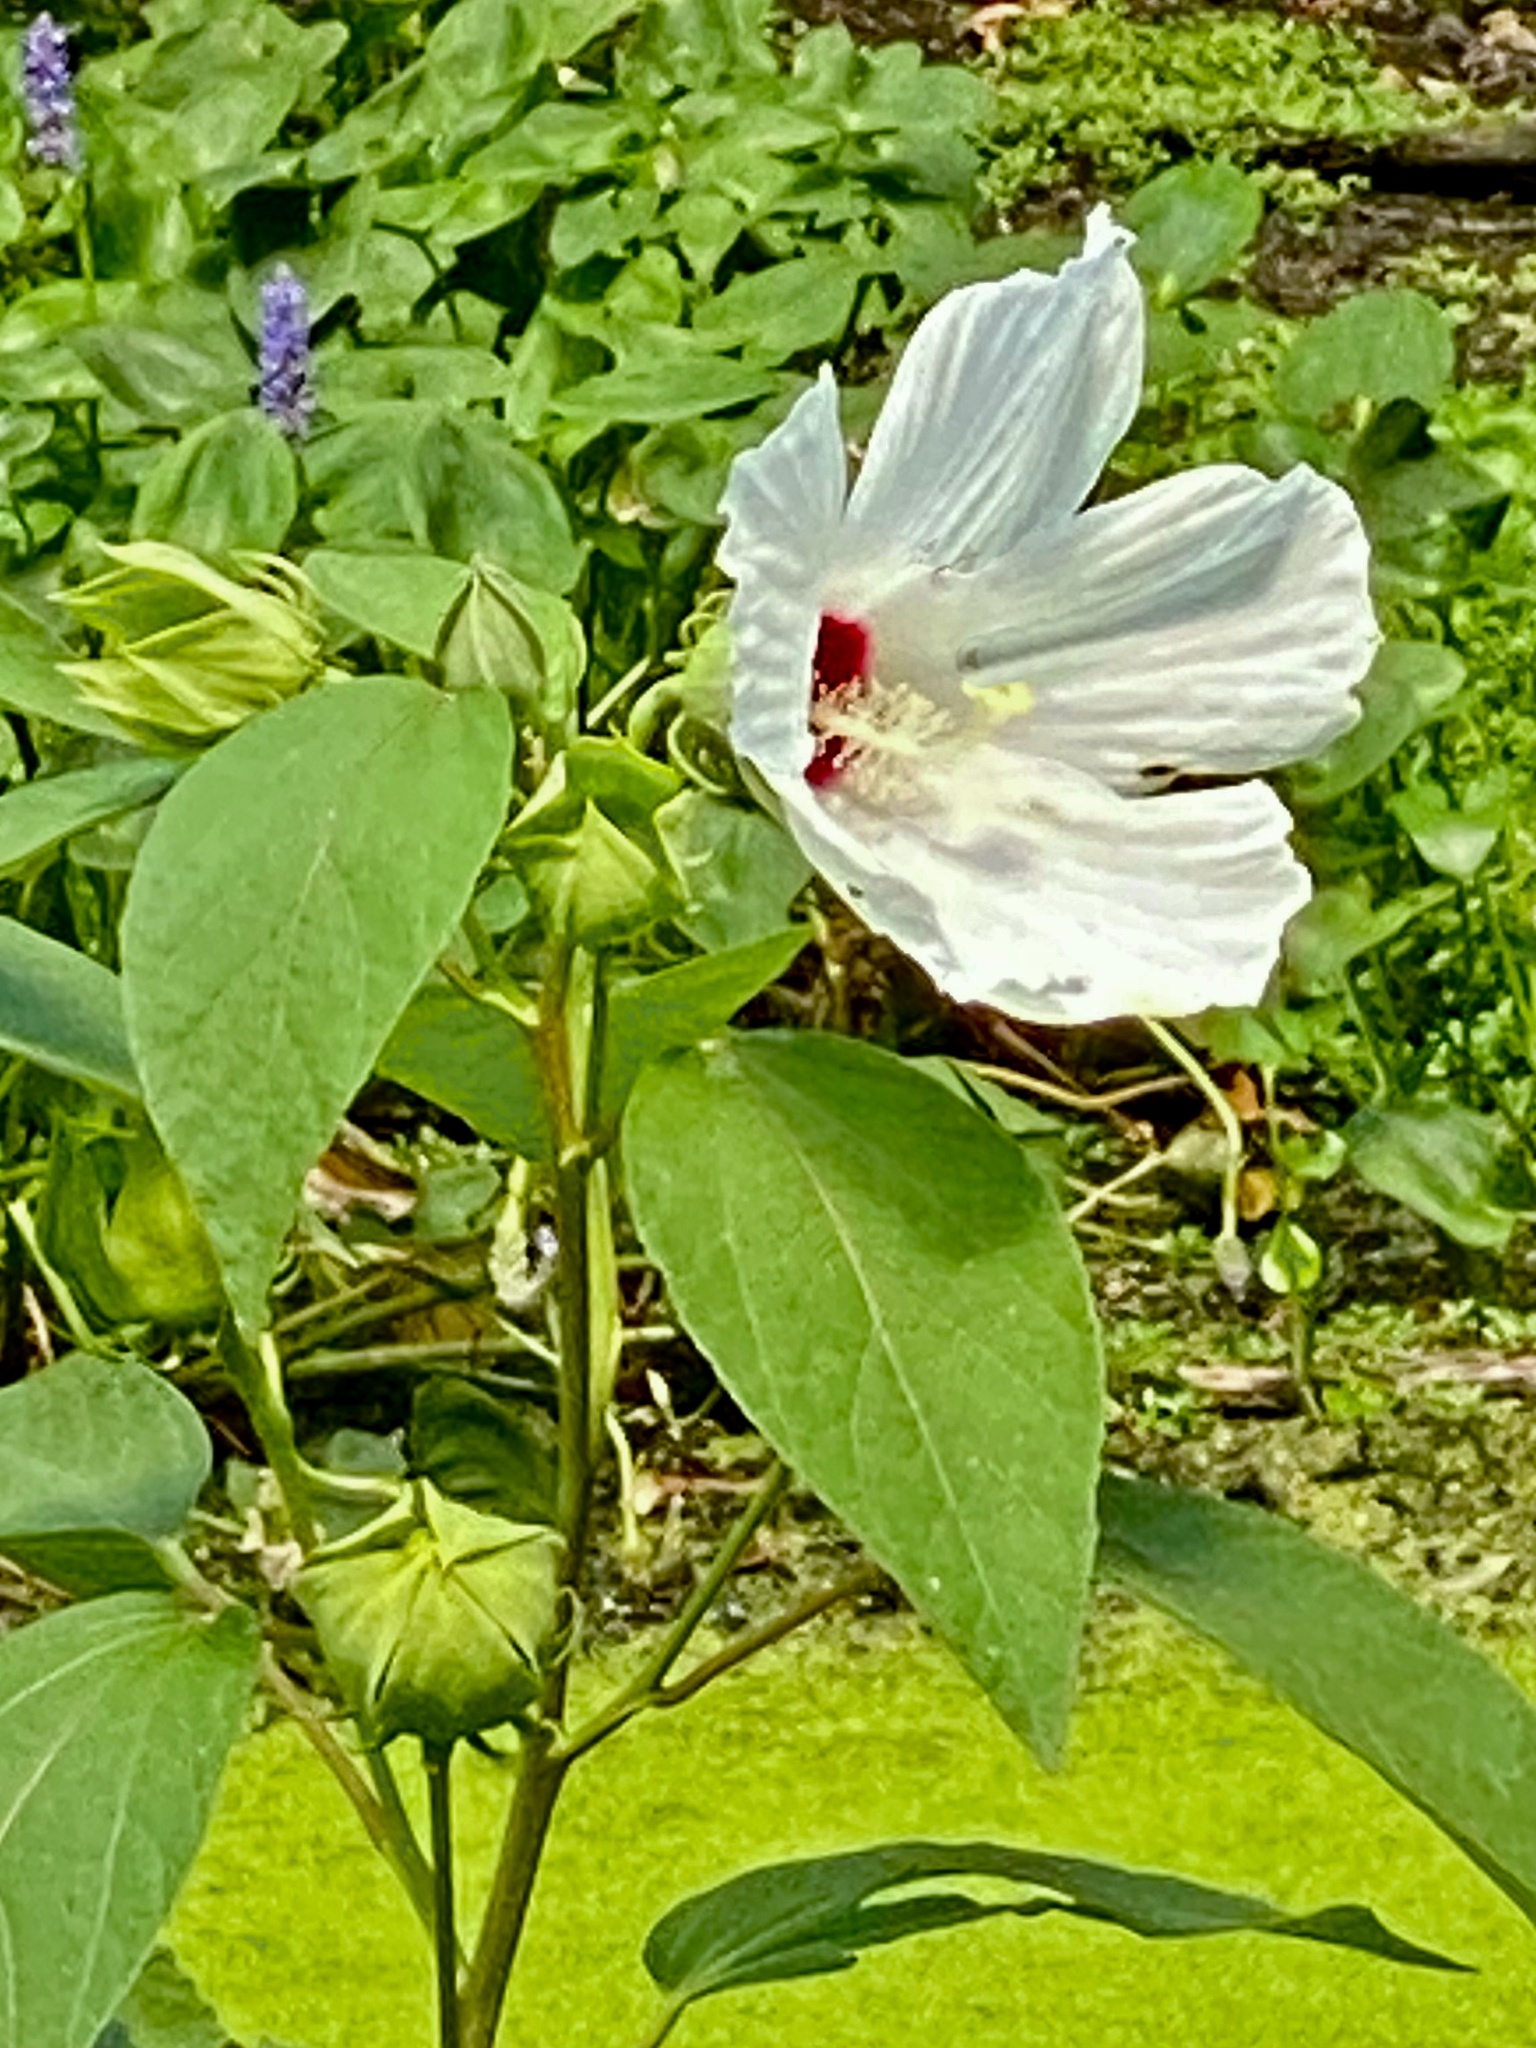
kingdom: Plantae
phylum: Tracheophyta
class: Magnoliopsida
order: Malvales
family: Malvaceae
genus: Hibiscus
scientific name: Hibiscus moscheutos
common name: Common rose-mallow
